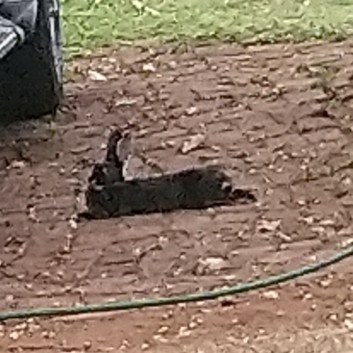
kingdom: Animalia
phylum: Chordata
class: Mammalia
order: Lagomorpha
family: Leporidae
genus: Oryctolagus
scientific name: Oryctolagus cuniculus
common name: European rabbit
